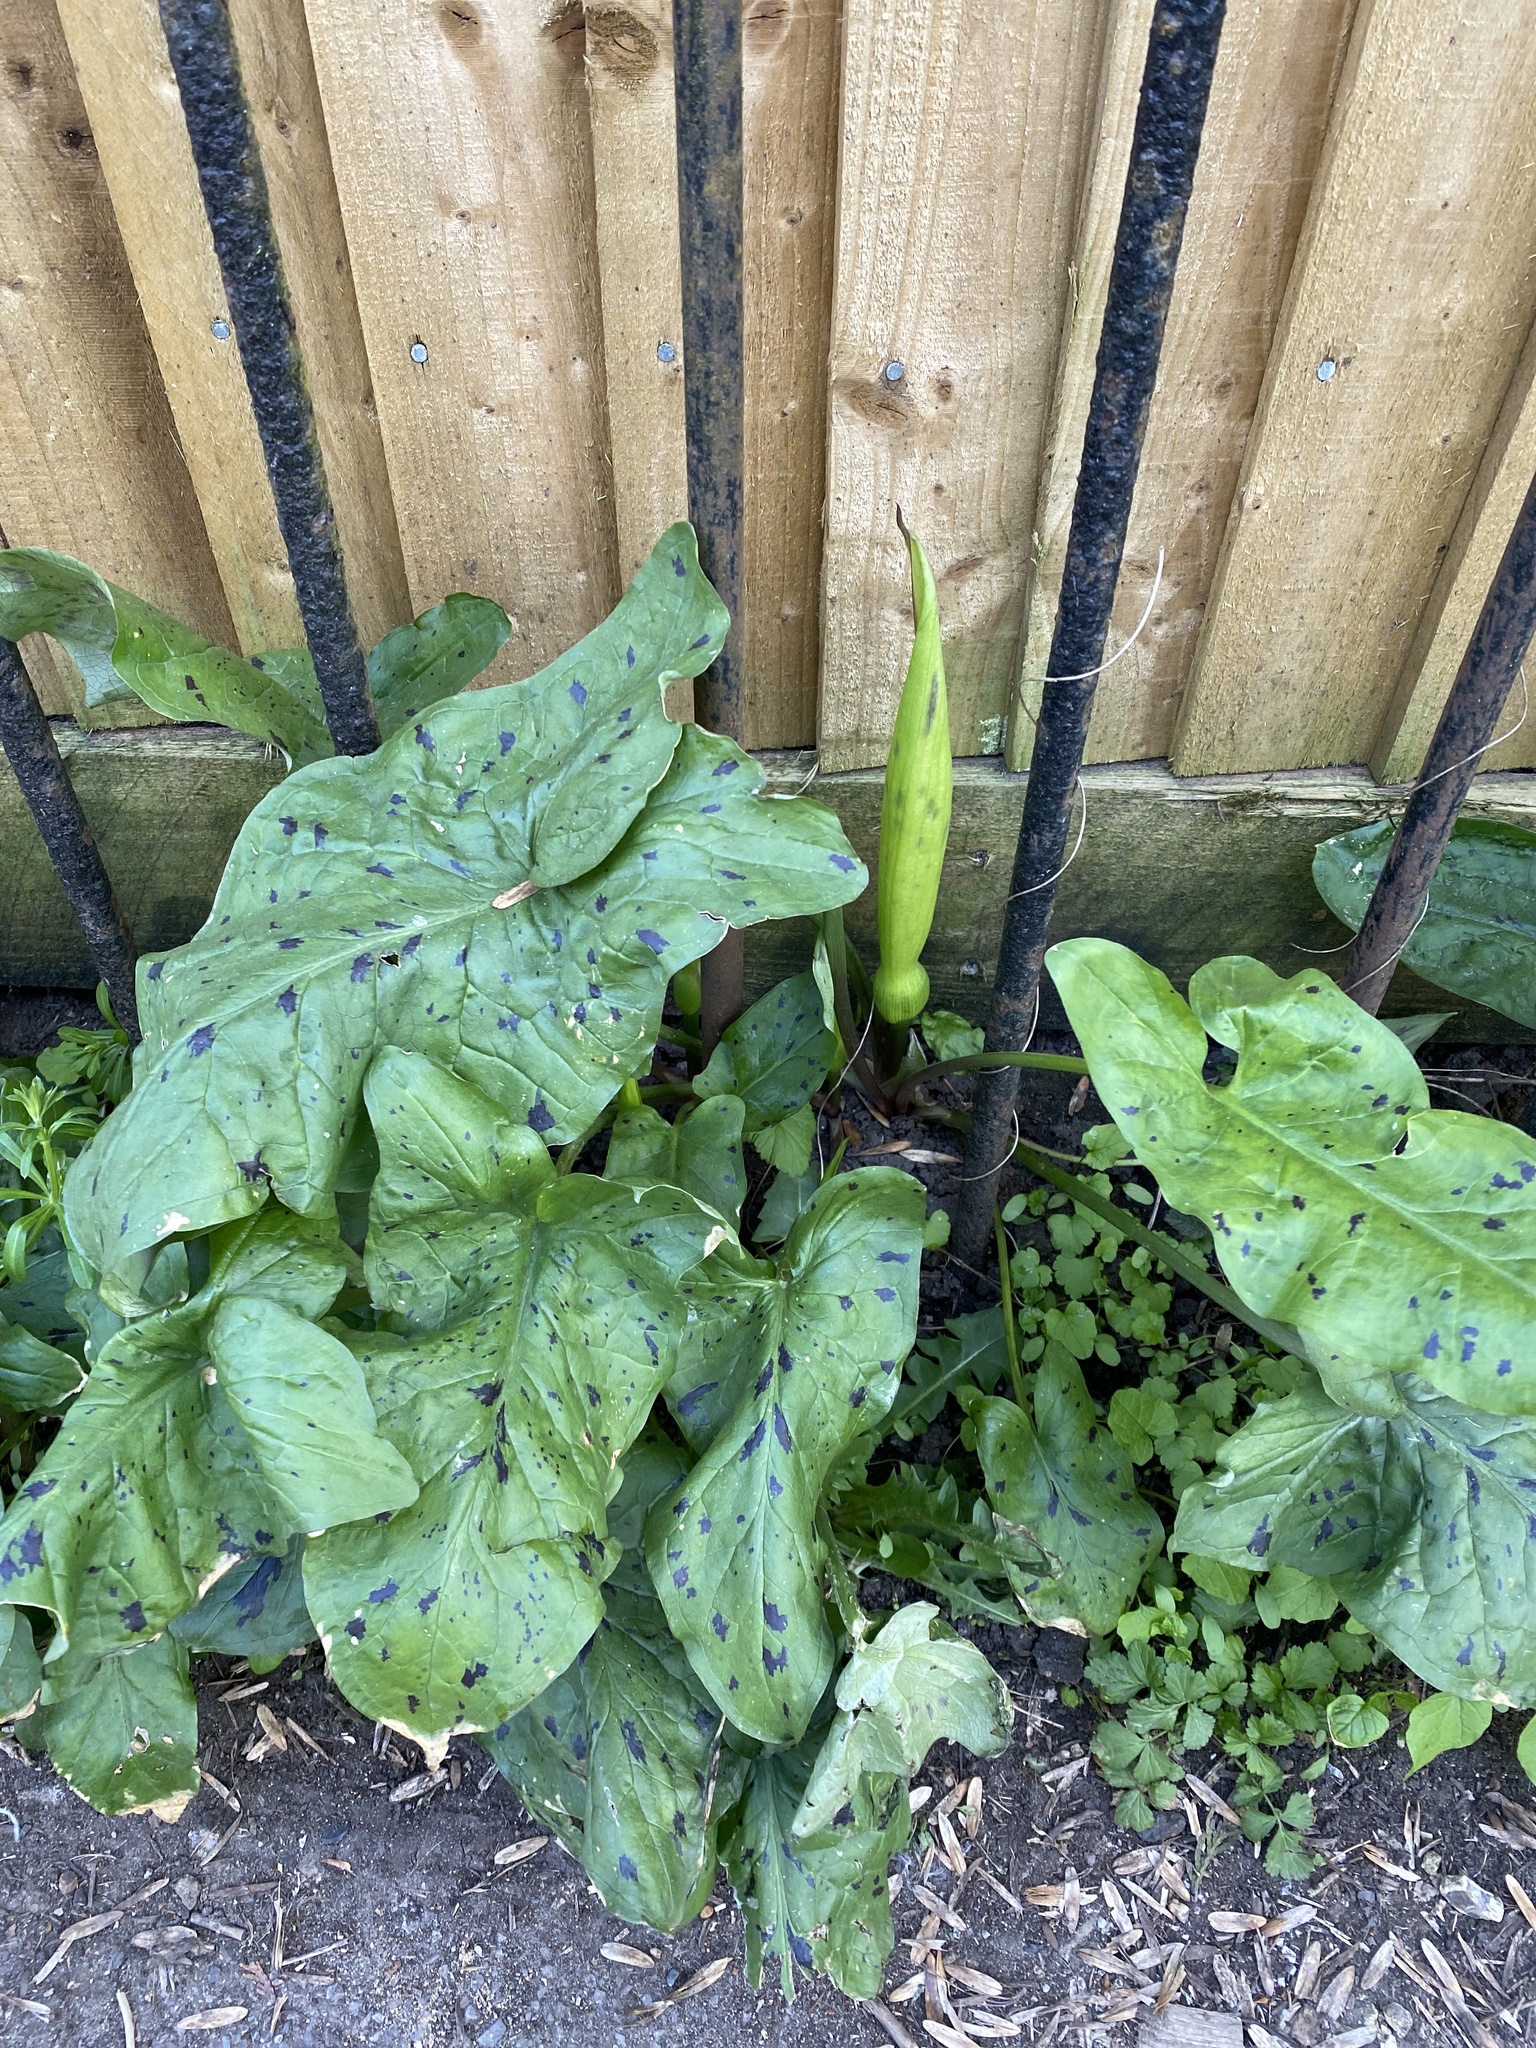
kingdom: Plantae
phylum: Tracheophyta
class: Liliopsida
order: Alismatales
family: Araceae
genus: Arum
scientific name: Arum maculatum
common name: Lords-and-ladies
